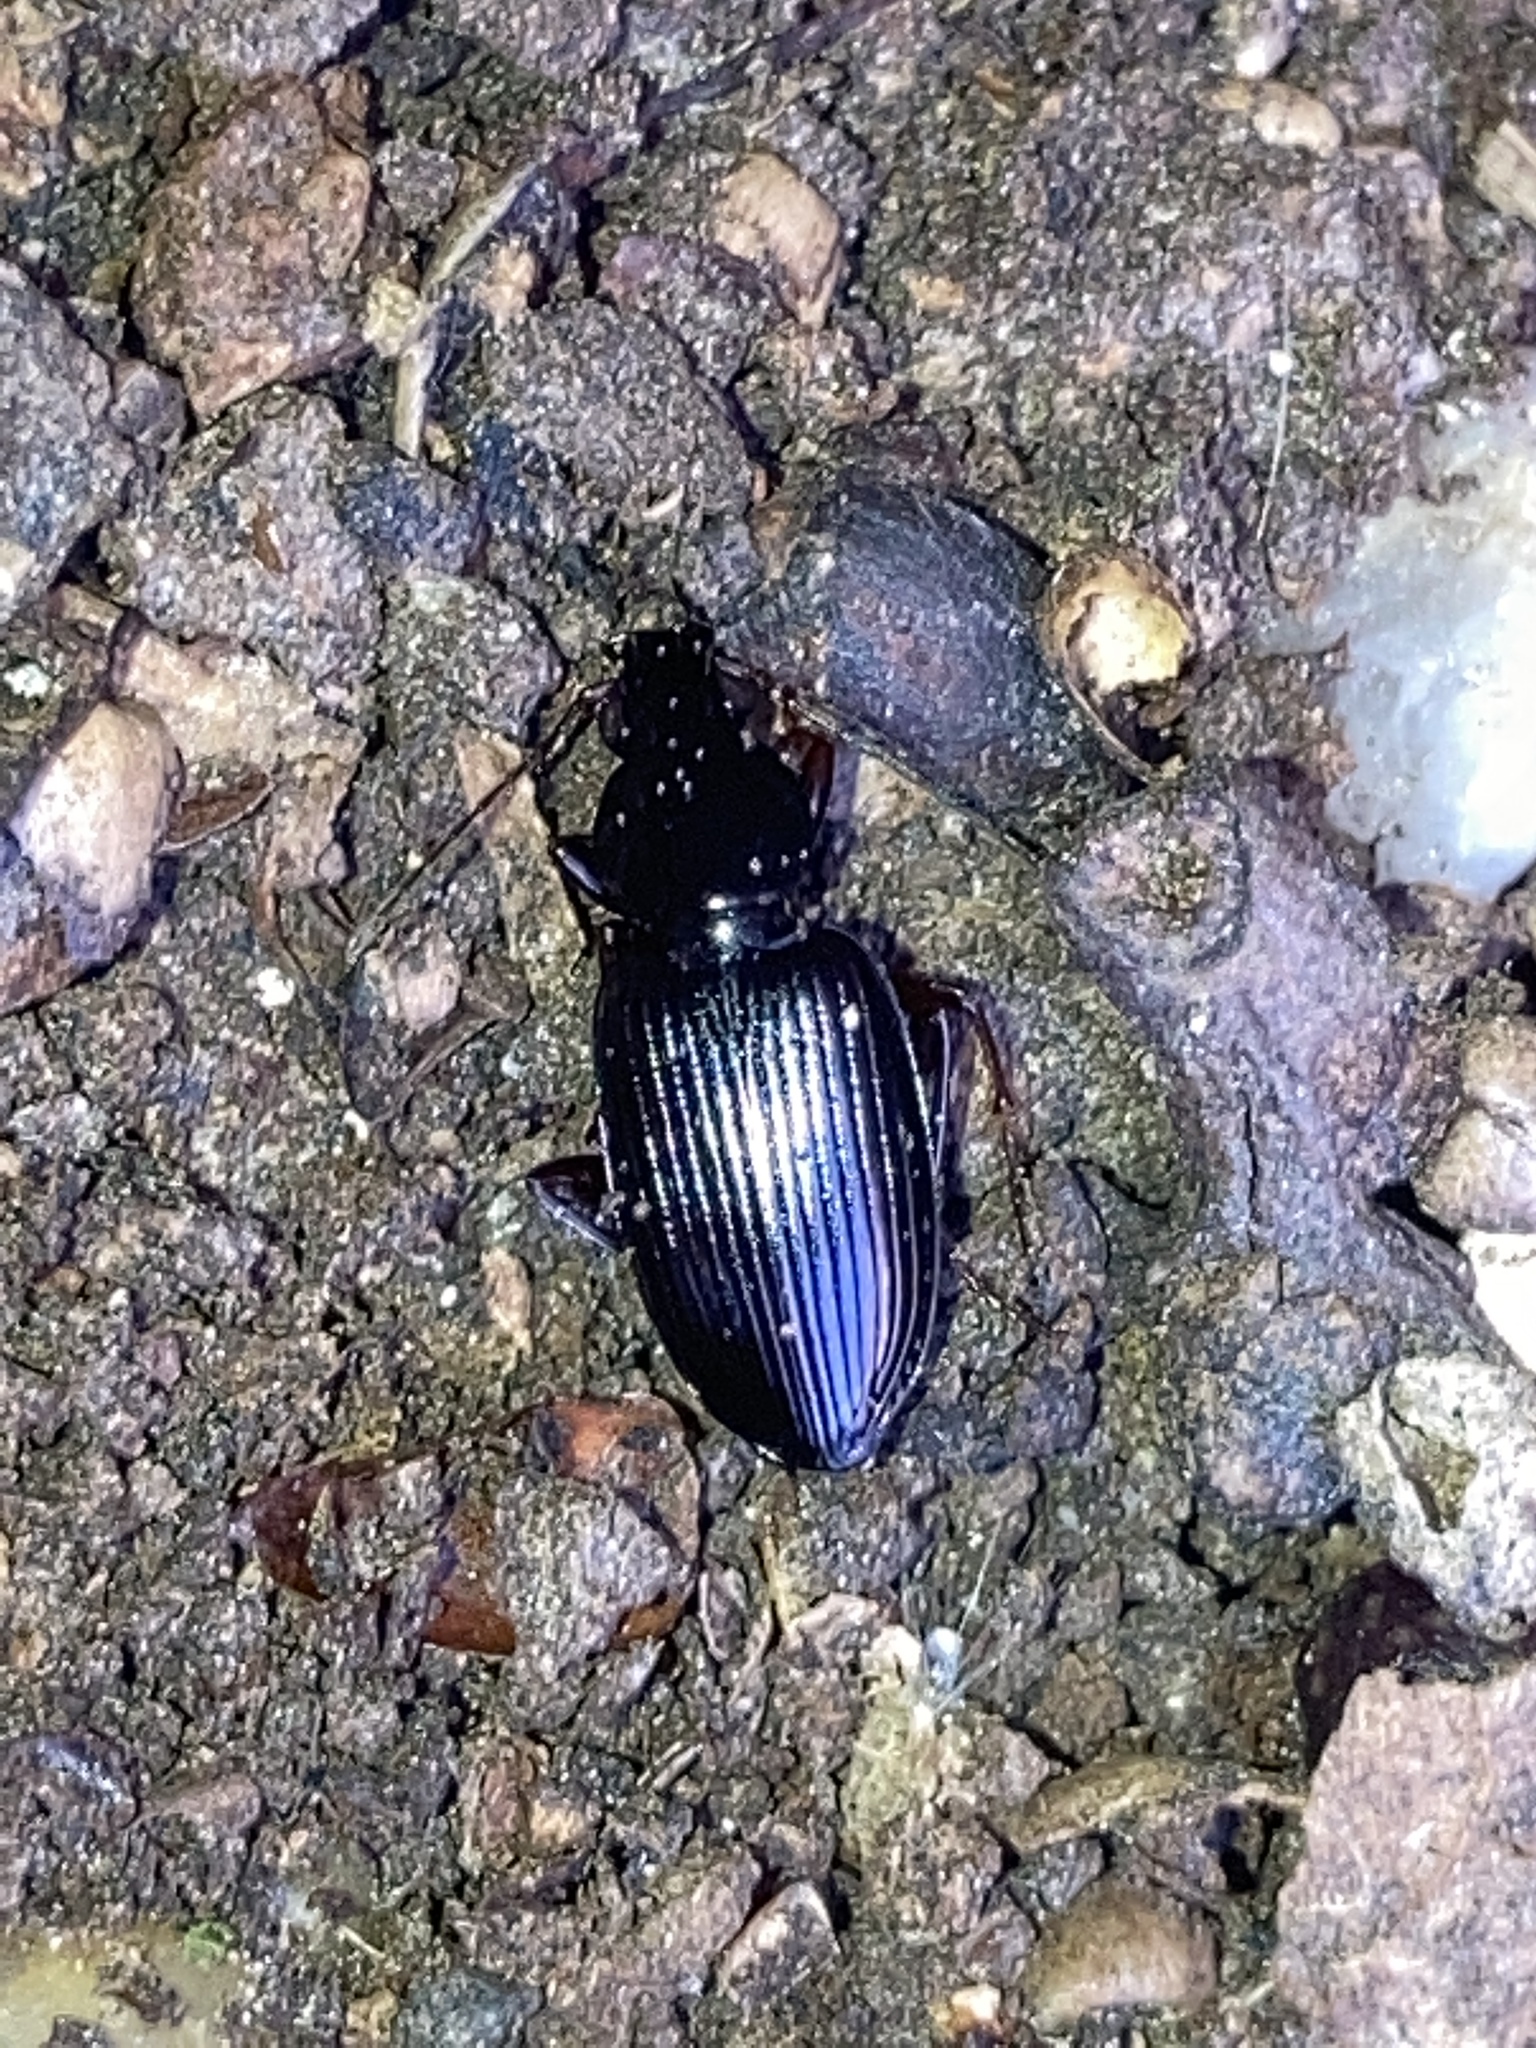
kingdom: Animalia
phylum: Arthropoda
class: Insecta
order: Coleoptera
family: Carabidae
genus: Agonum
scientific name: Agonum punctiforme
